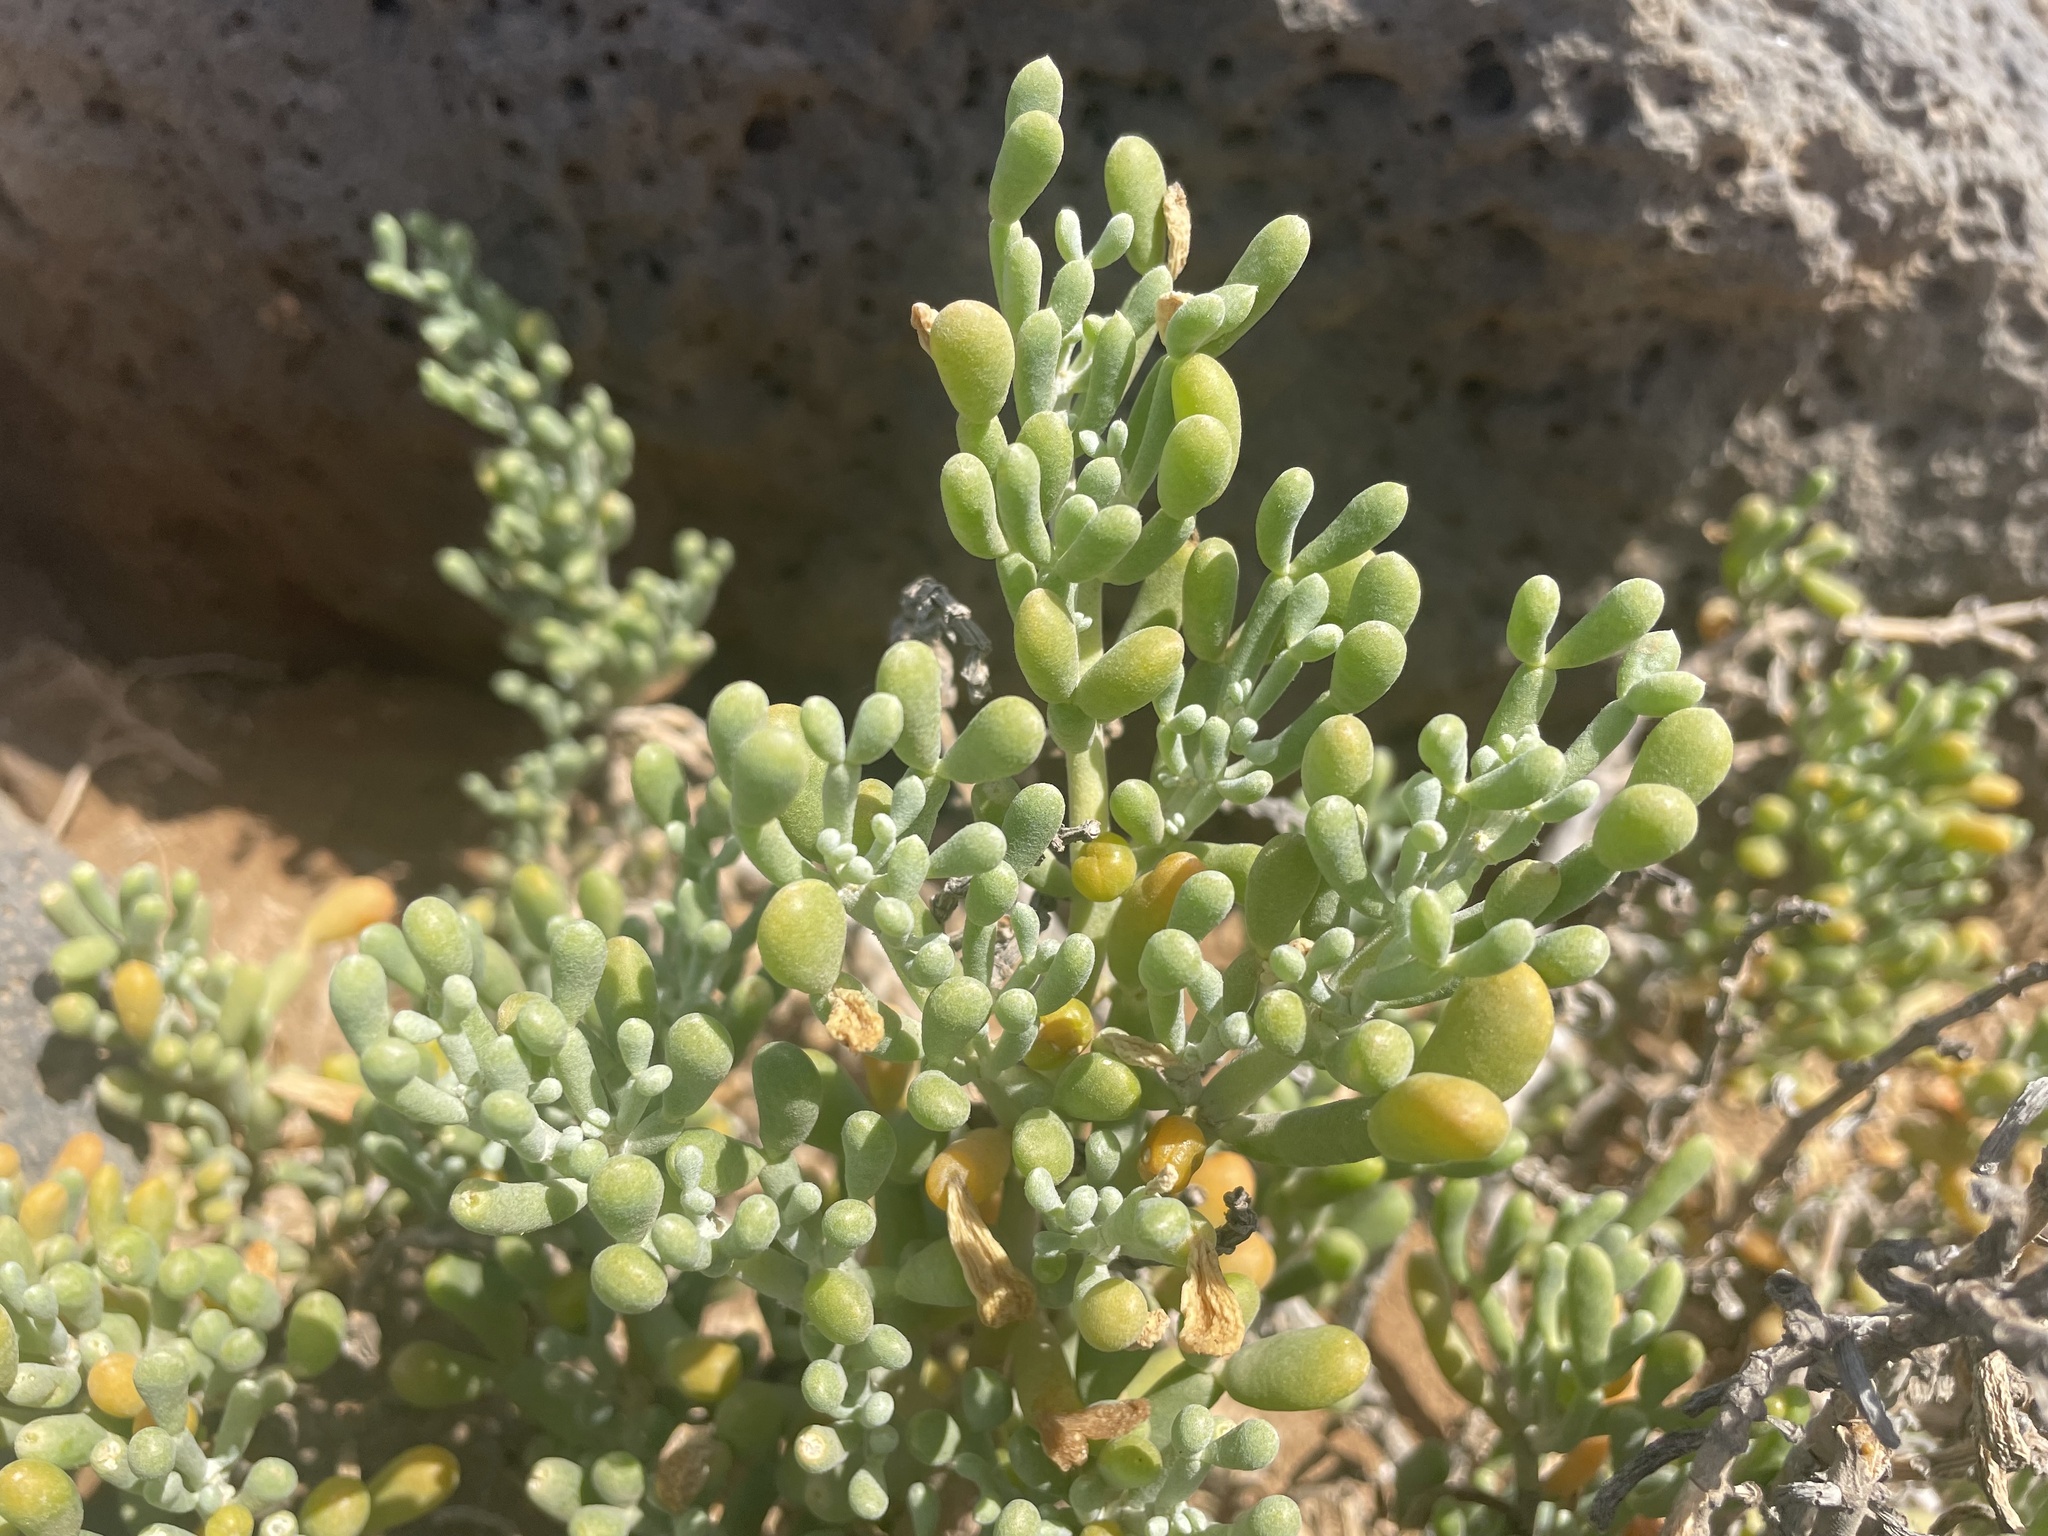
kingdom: Plantae
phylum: Tracheophyta
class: Magnoliopsida
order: Zygophyllales
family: Zygophyllaceae
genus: Tetraena
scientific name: Tetraena fontanesii
